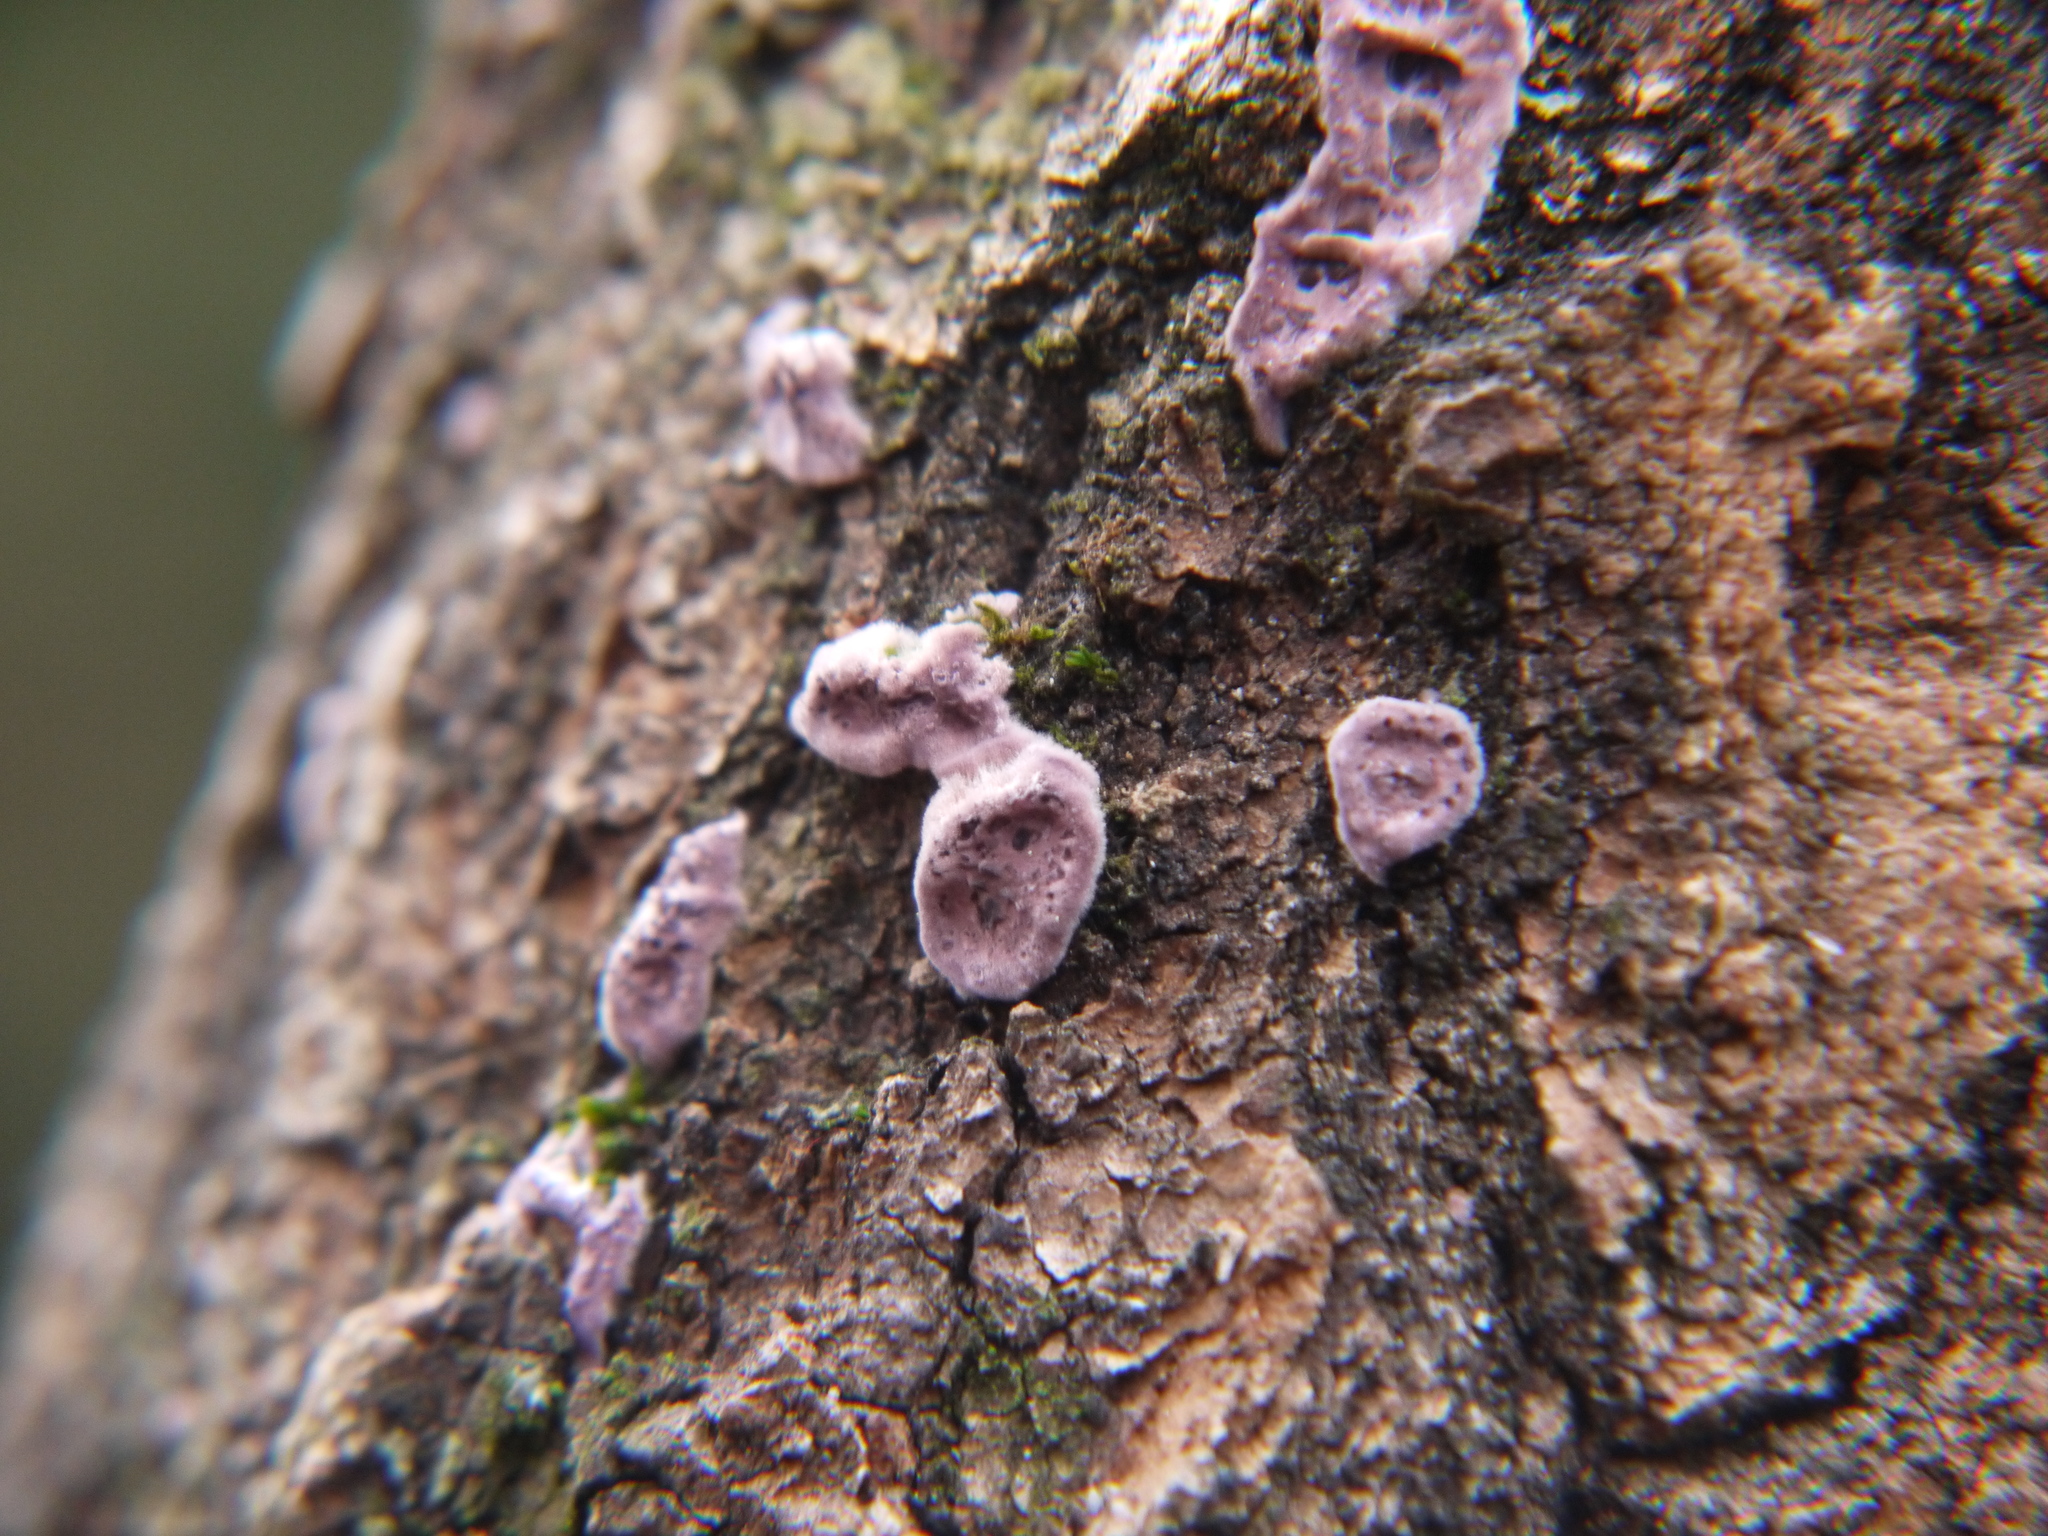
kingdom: Fungi
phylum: Basidiomycota
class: Agaricomycetes
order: Agaricales
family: Cyphellaceae
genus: Chondrostereum
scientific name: Chondrostereum purpureum
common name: Silver leaf disease
